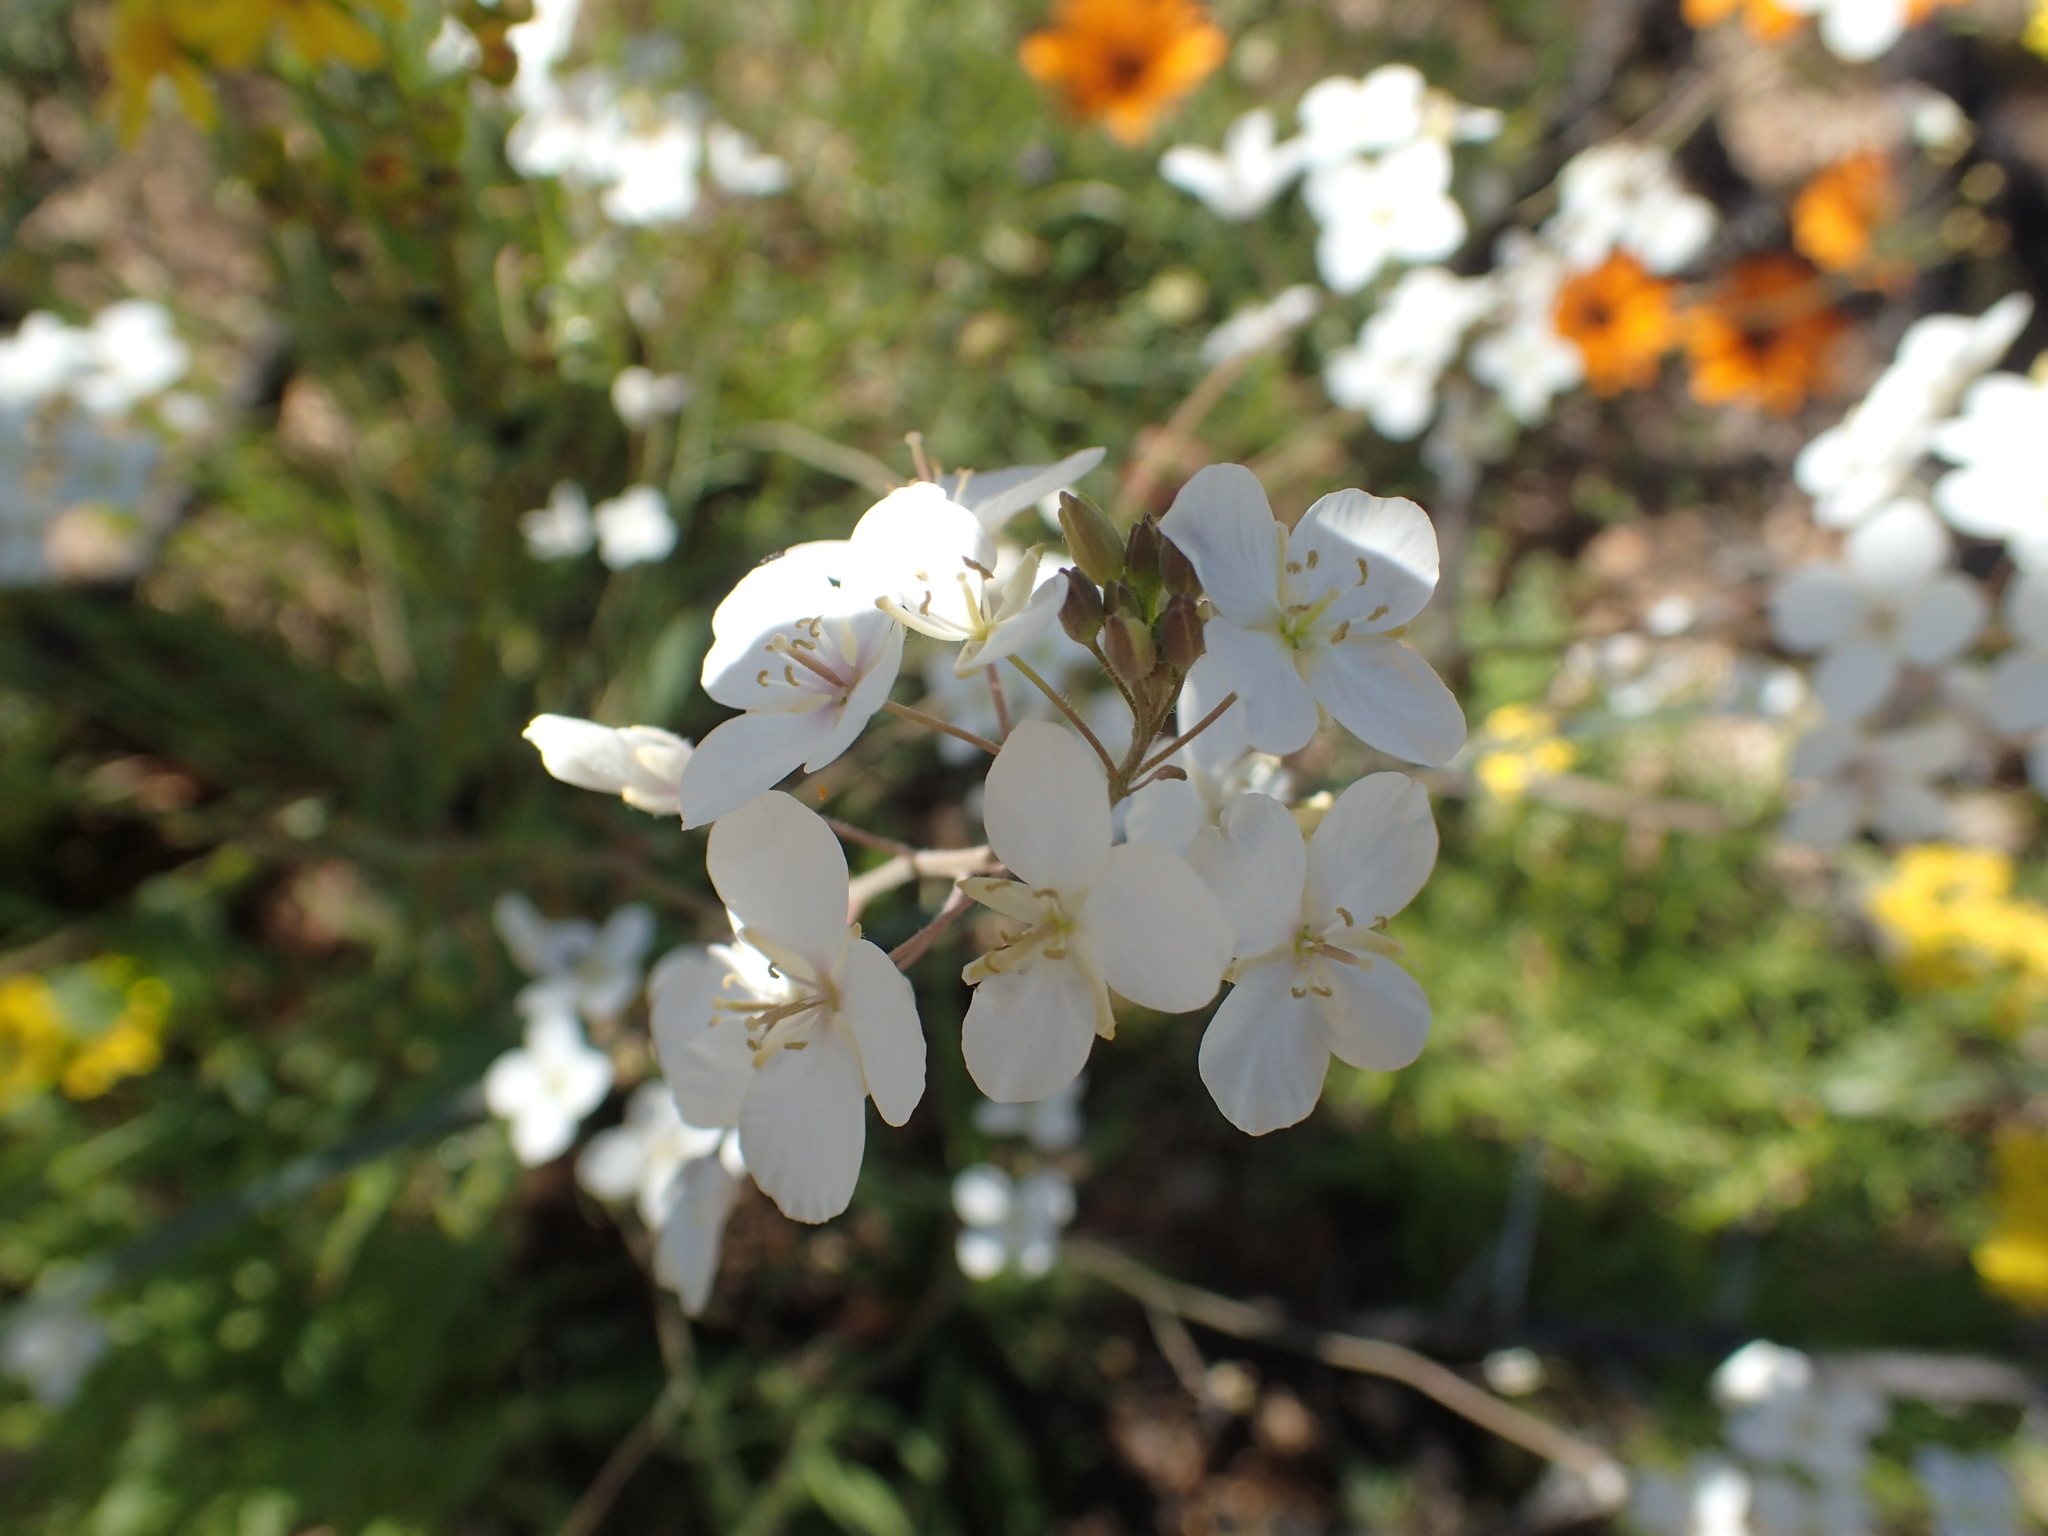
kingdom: Plantae
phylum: Tracheophyta
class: Magnoliopsida
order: Brassicales
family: Brassicaceae
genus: Heliophila
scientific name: Heliophila amplexicaulis
